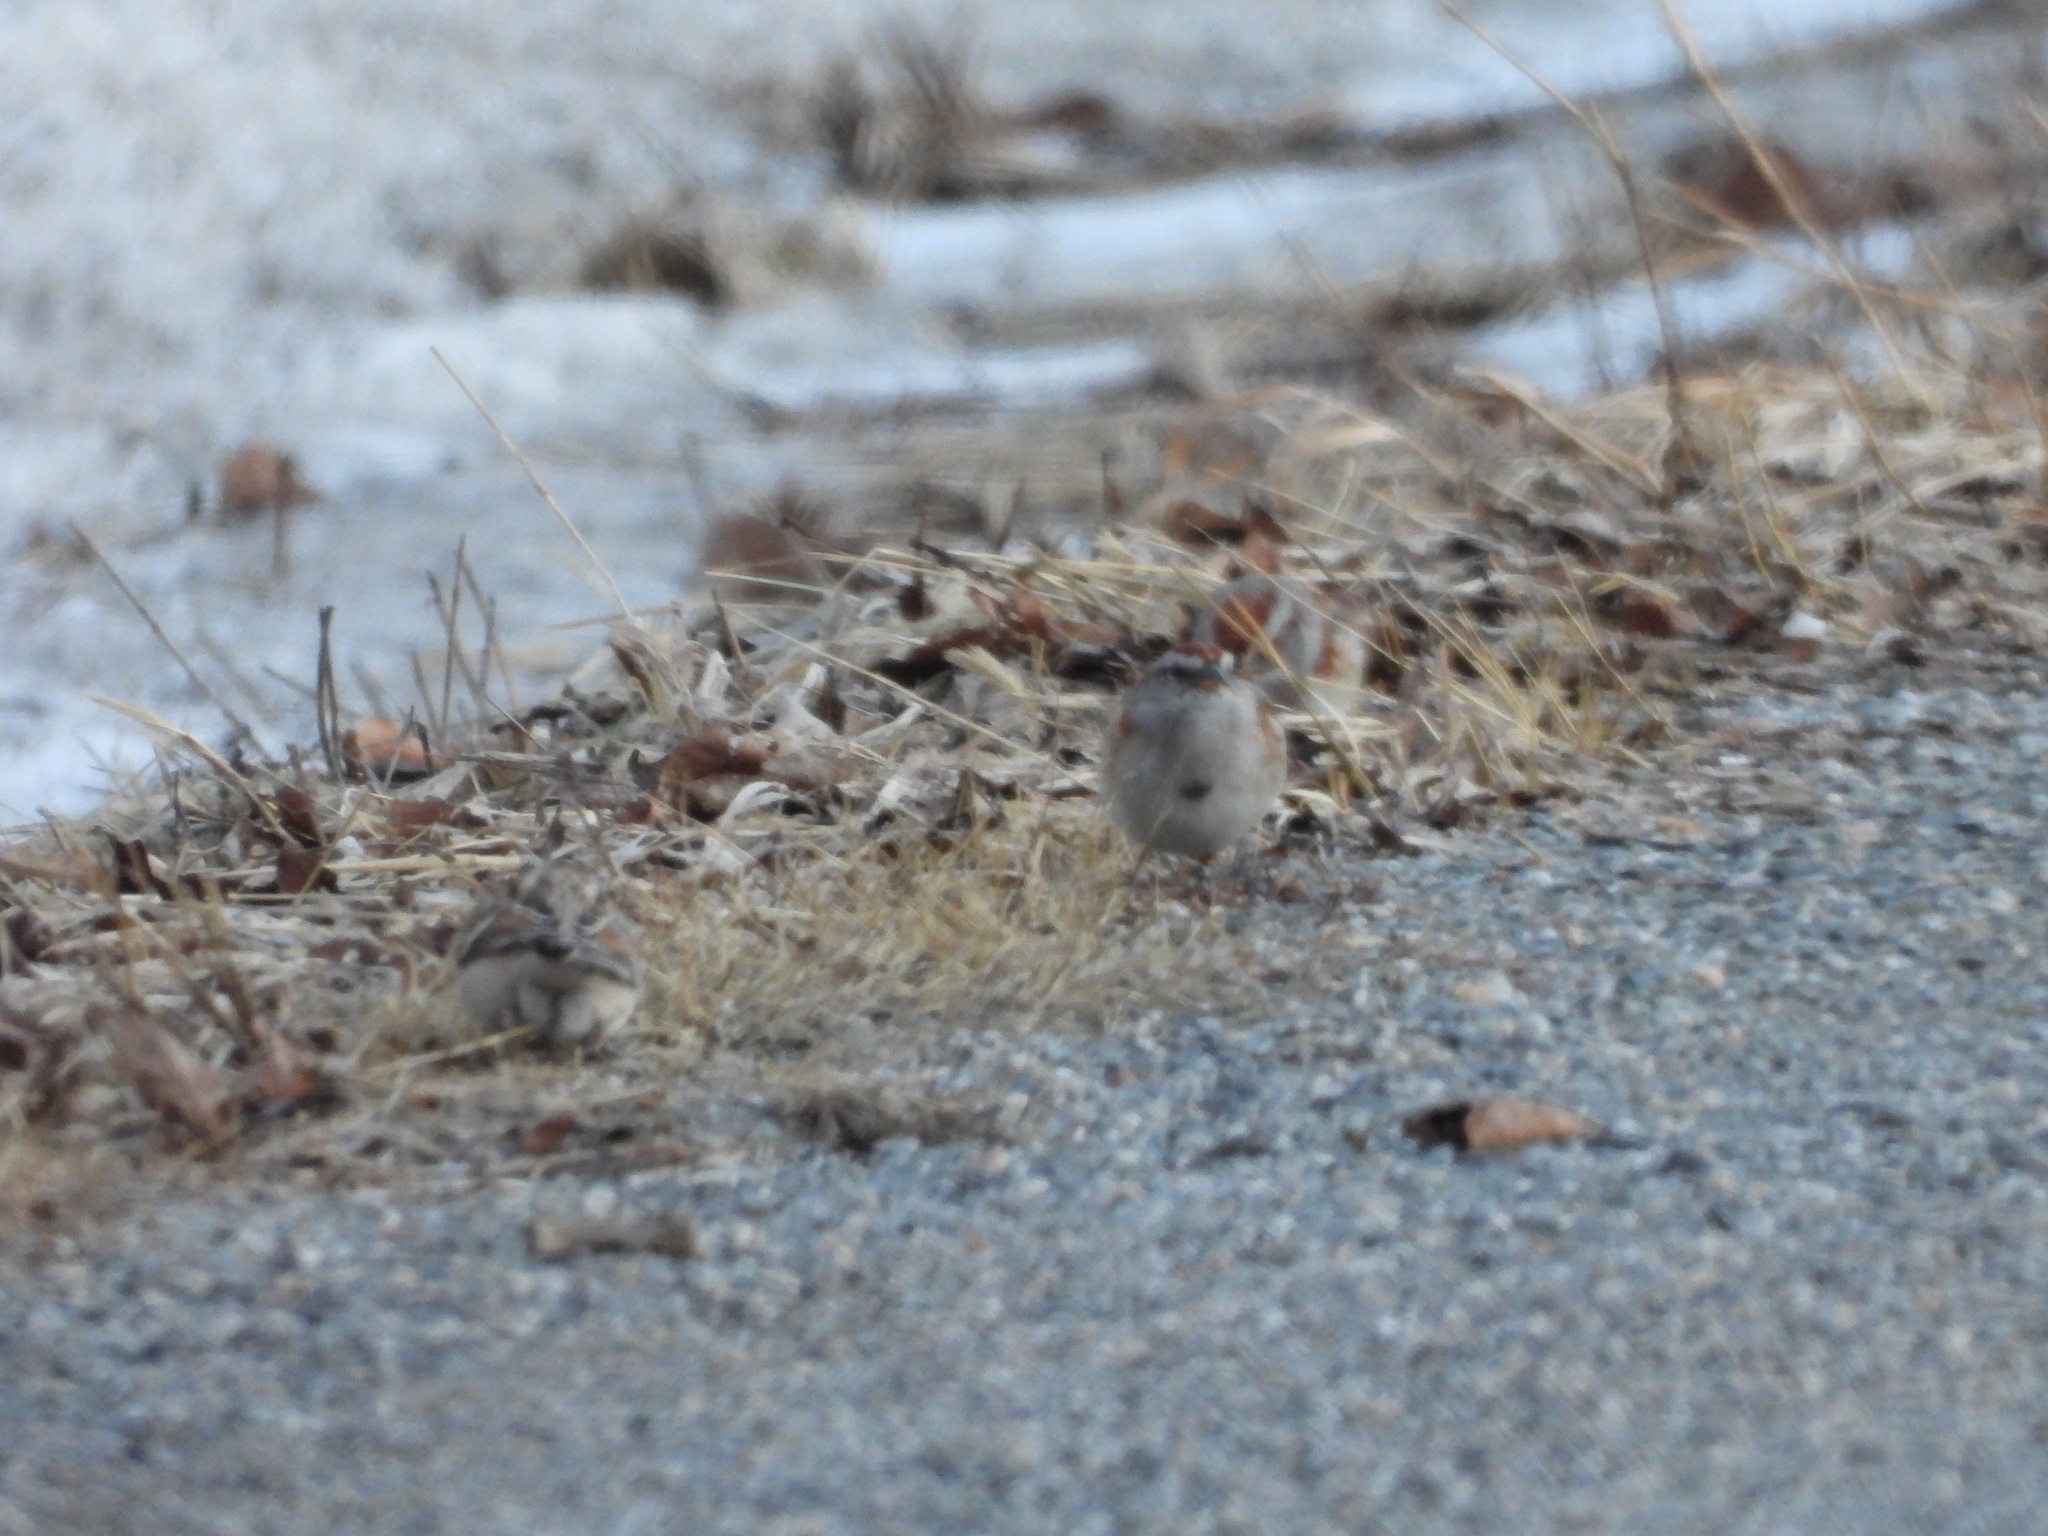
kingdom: Animalia
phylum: Chordata
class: Aves
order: Passeriformes
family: Passerellidae
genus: Spizelloides
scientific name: Spizelloides arborea
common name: American tree sparrow
